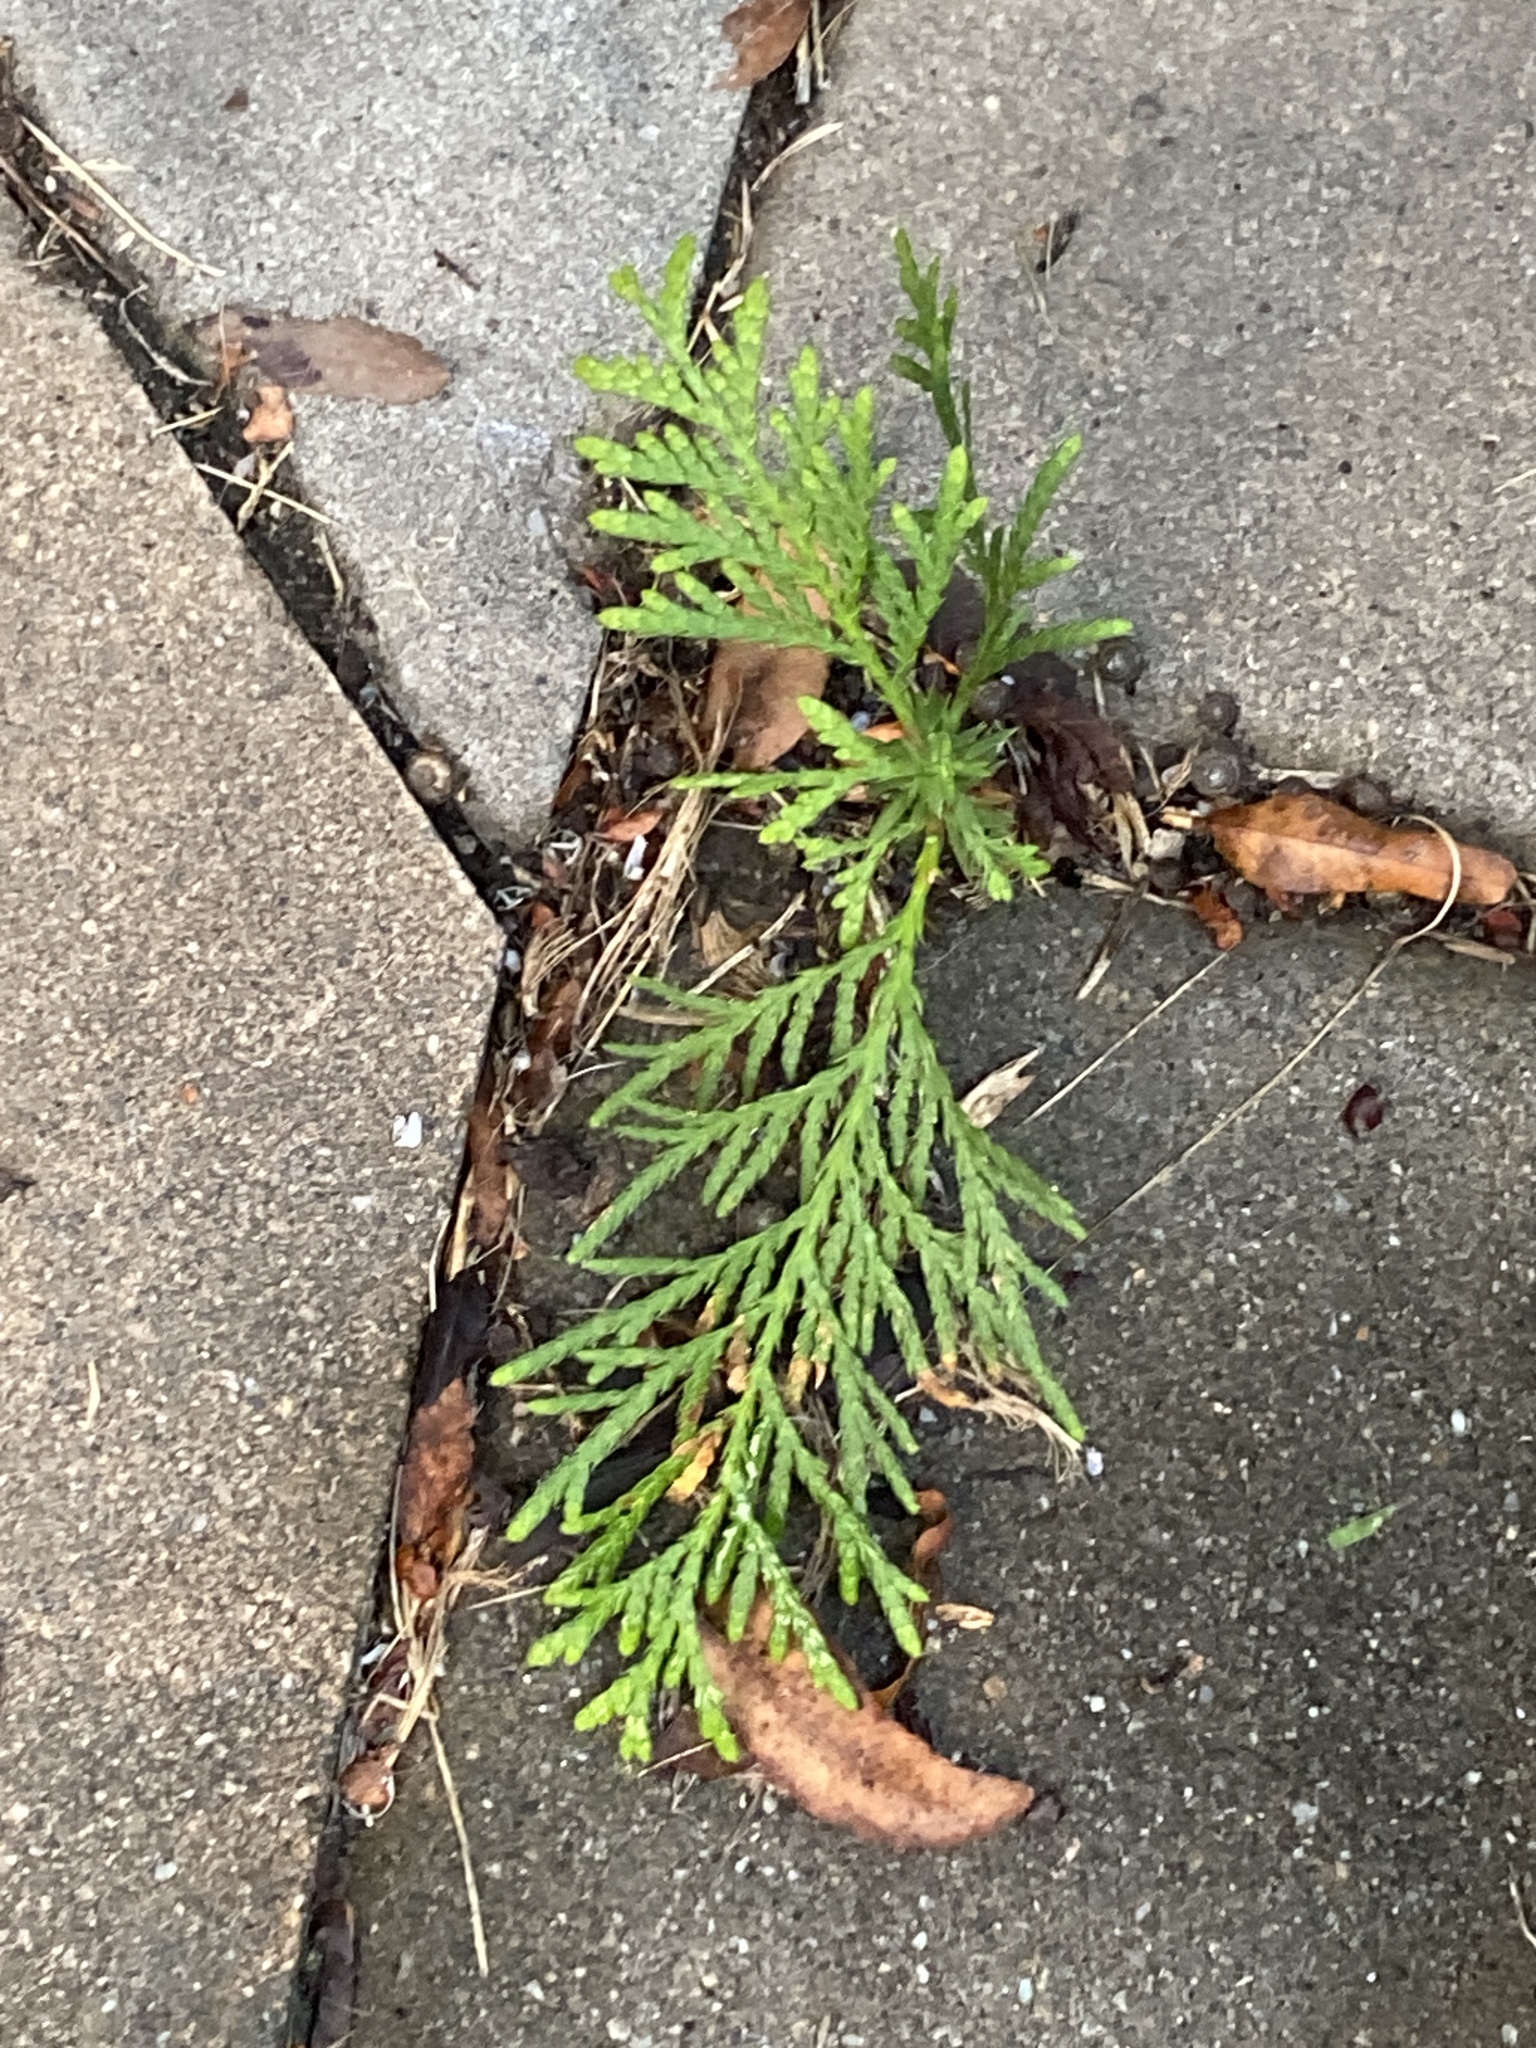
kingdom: Plantae
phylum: Tracheophyta
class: Pinopsida
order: Pinales
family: Cupressaceae
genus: Thuja
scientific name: Thuja occidentalis
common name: Northern white-cedar
